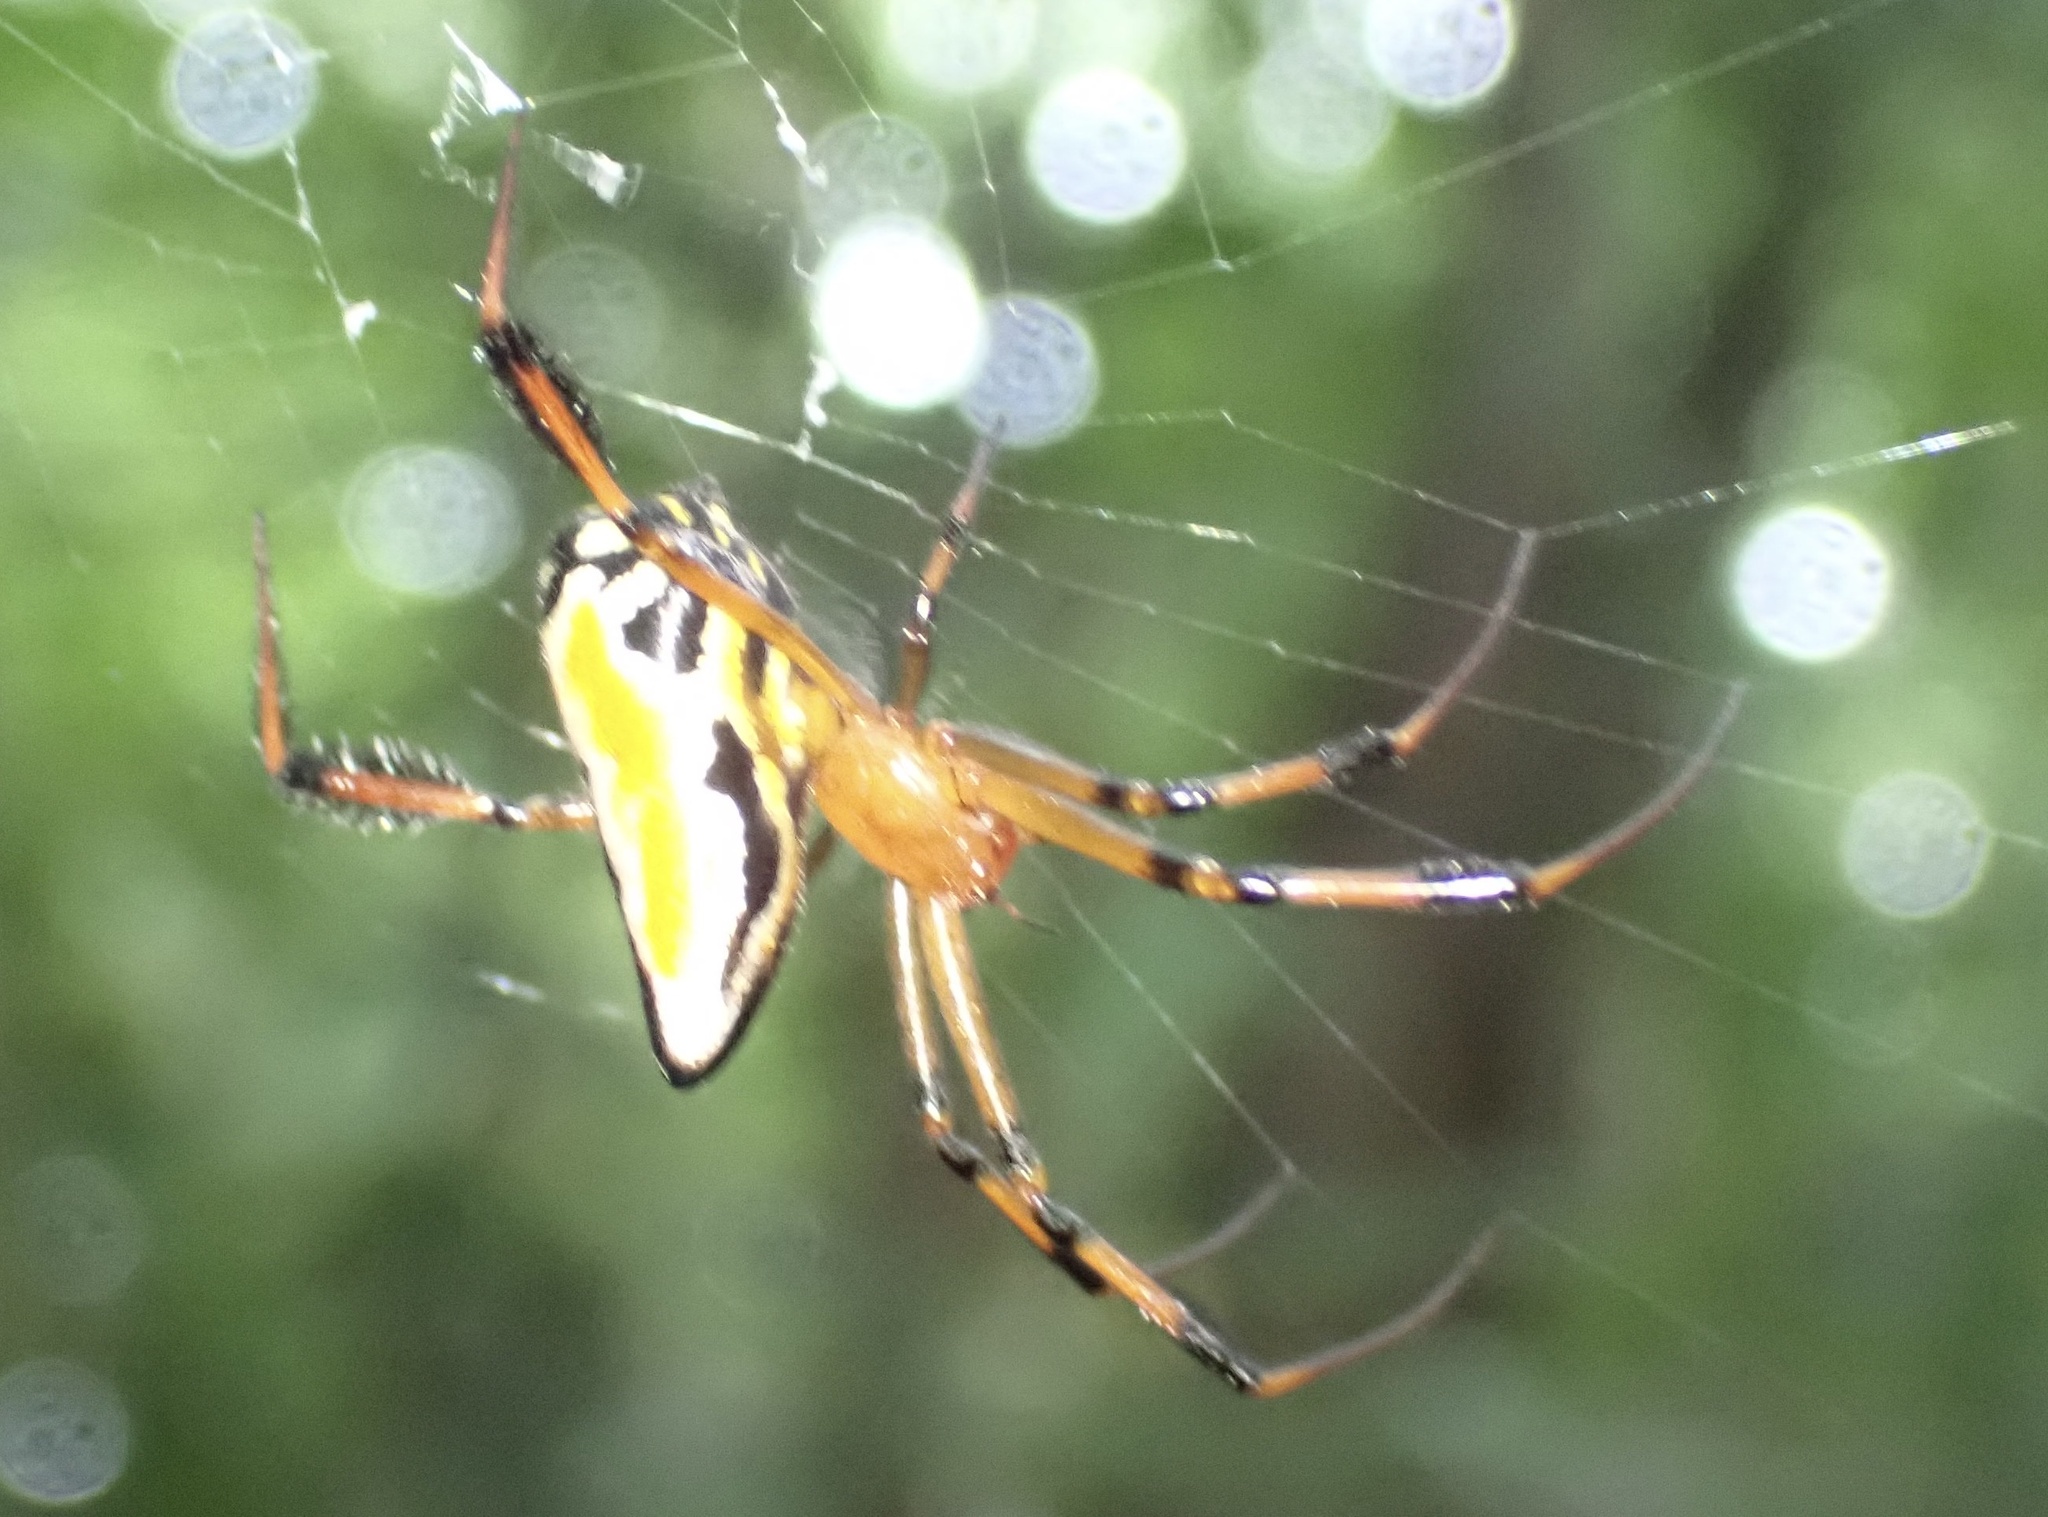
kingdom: Animalia
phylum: Arthropoda
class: Arachnida
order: Araneae
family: Tetragnathidae
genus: Leucauge
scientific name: Leucauge grata
